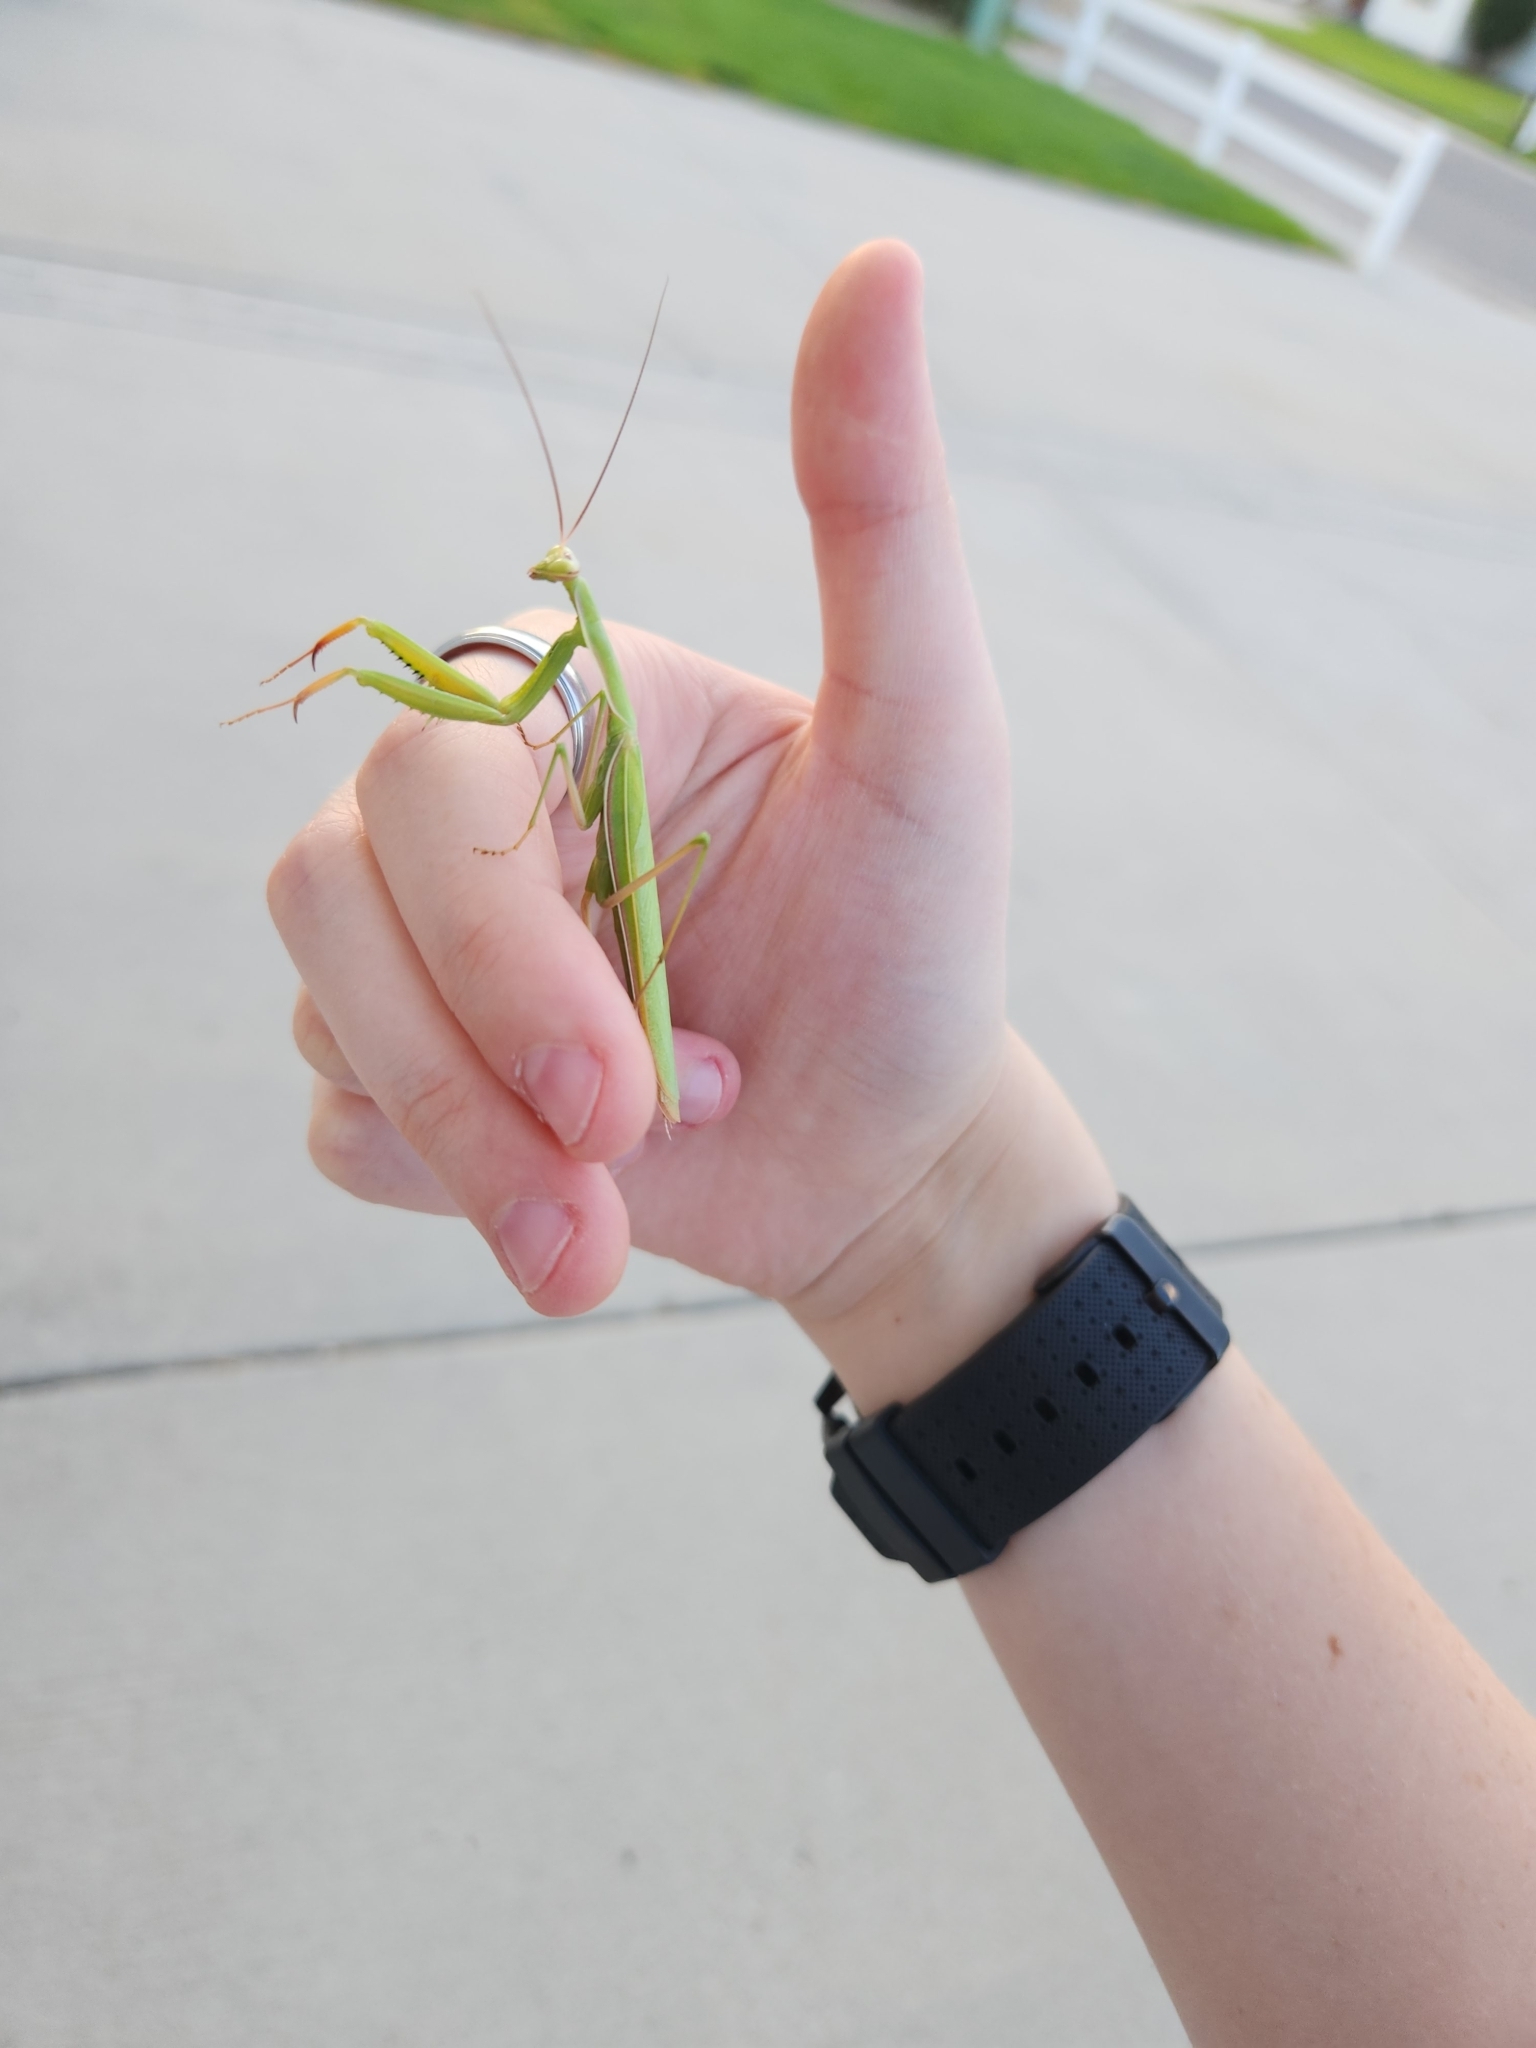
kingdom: Animalia
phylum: Arthropoda
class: Insecta
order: Mantodea
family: Mantidae
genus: Mantis
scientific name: Mantis religiosa
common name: Praying mantis
